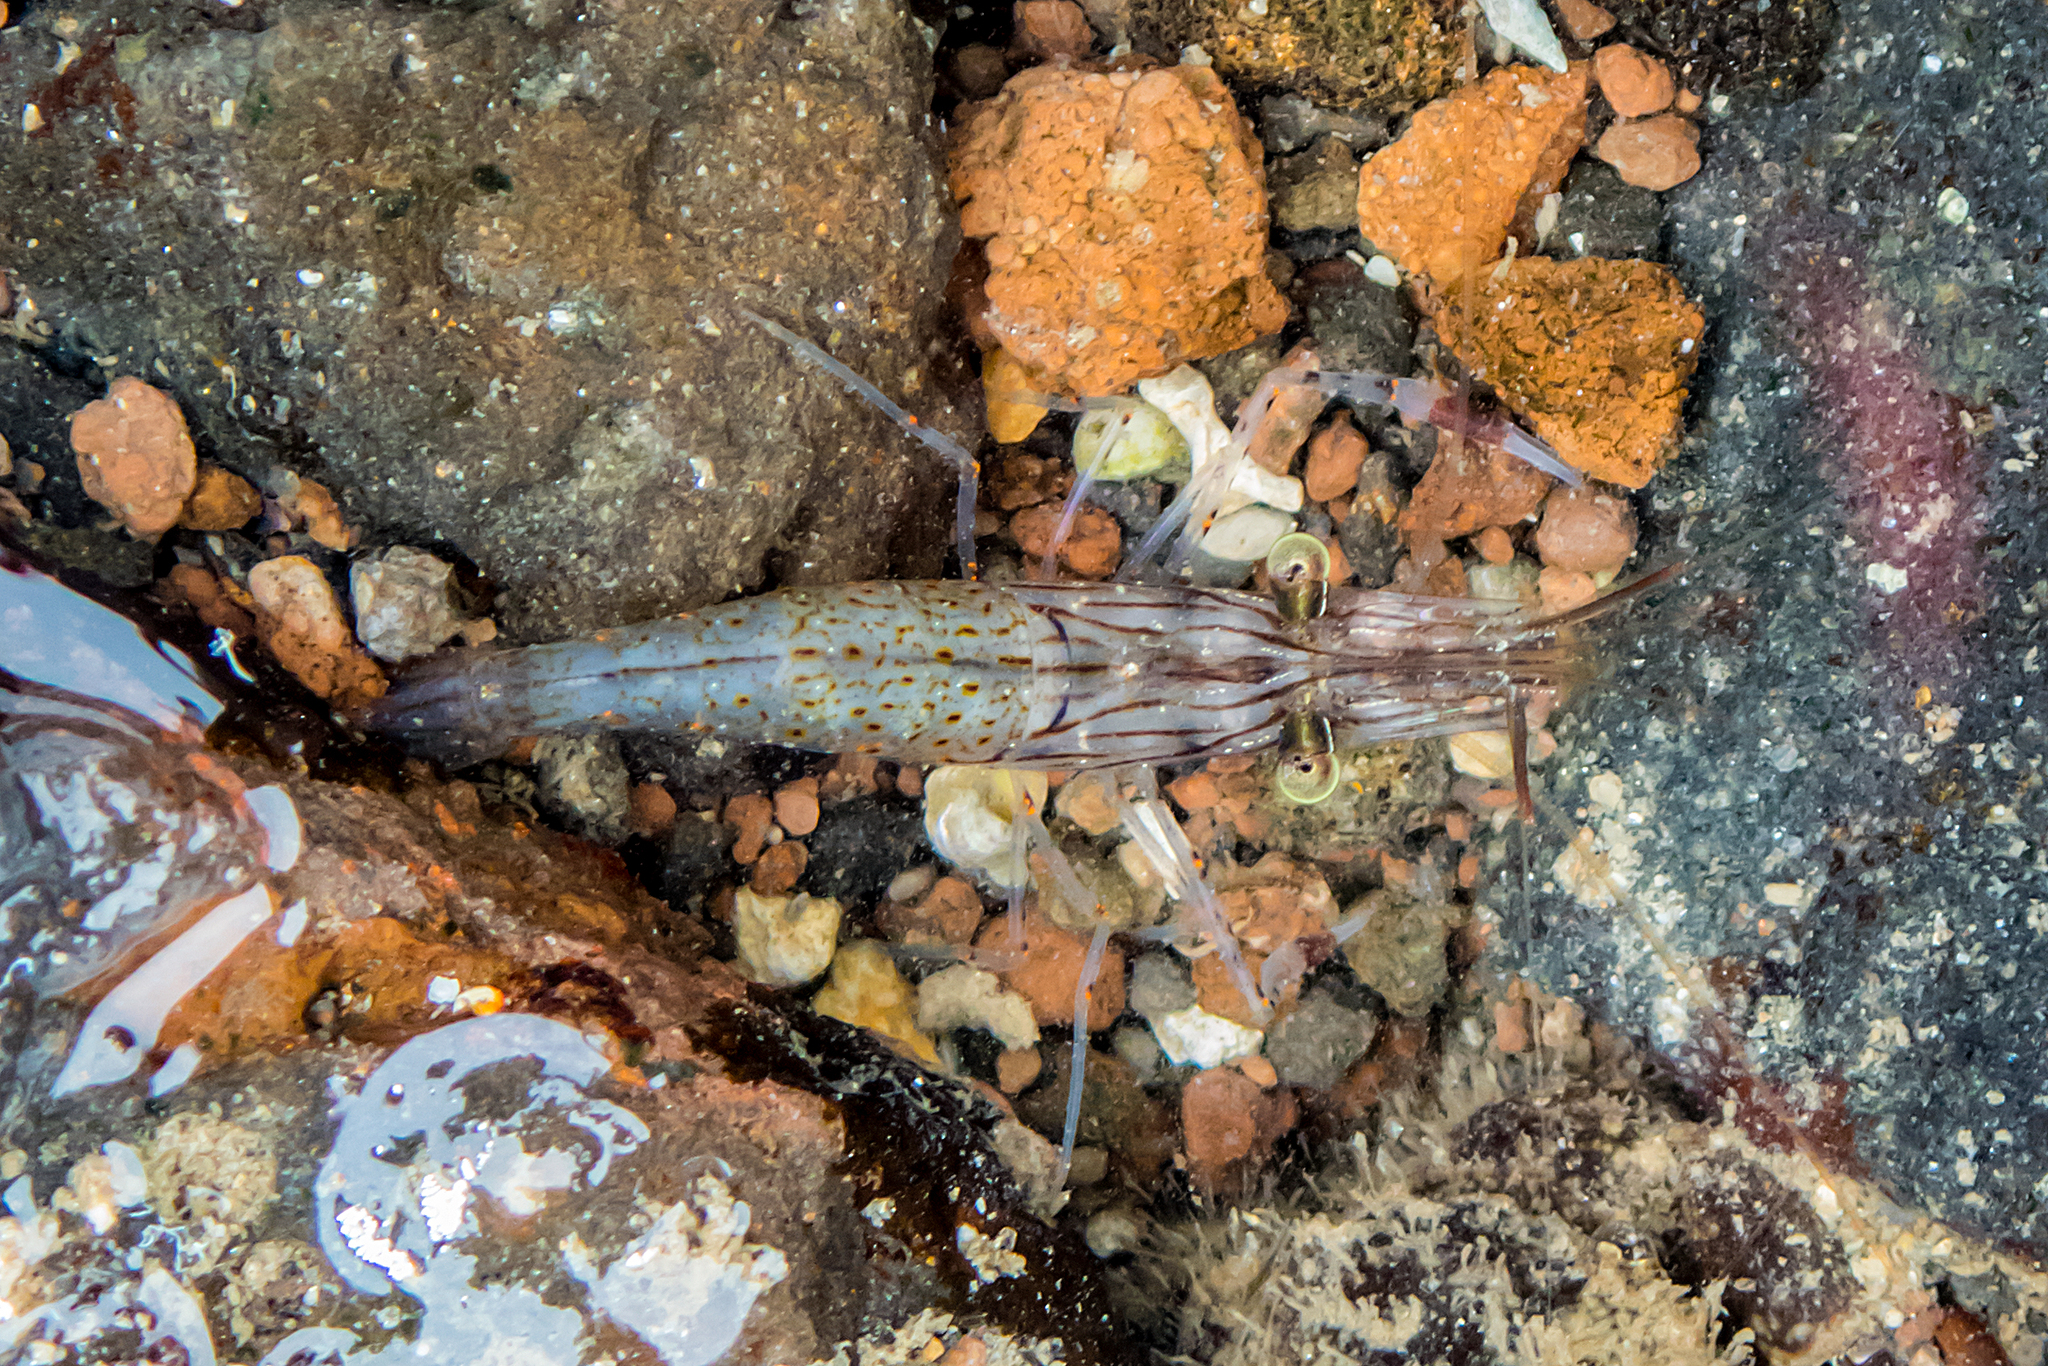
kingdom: Animalia
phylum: Arthropoda
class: Malacostraca
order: Decapoda
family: Palaemonidae
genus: Palaemon
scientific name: Palaemon serenus
